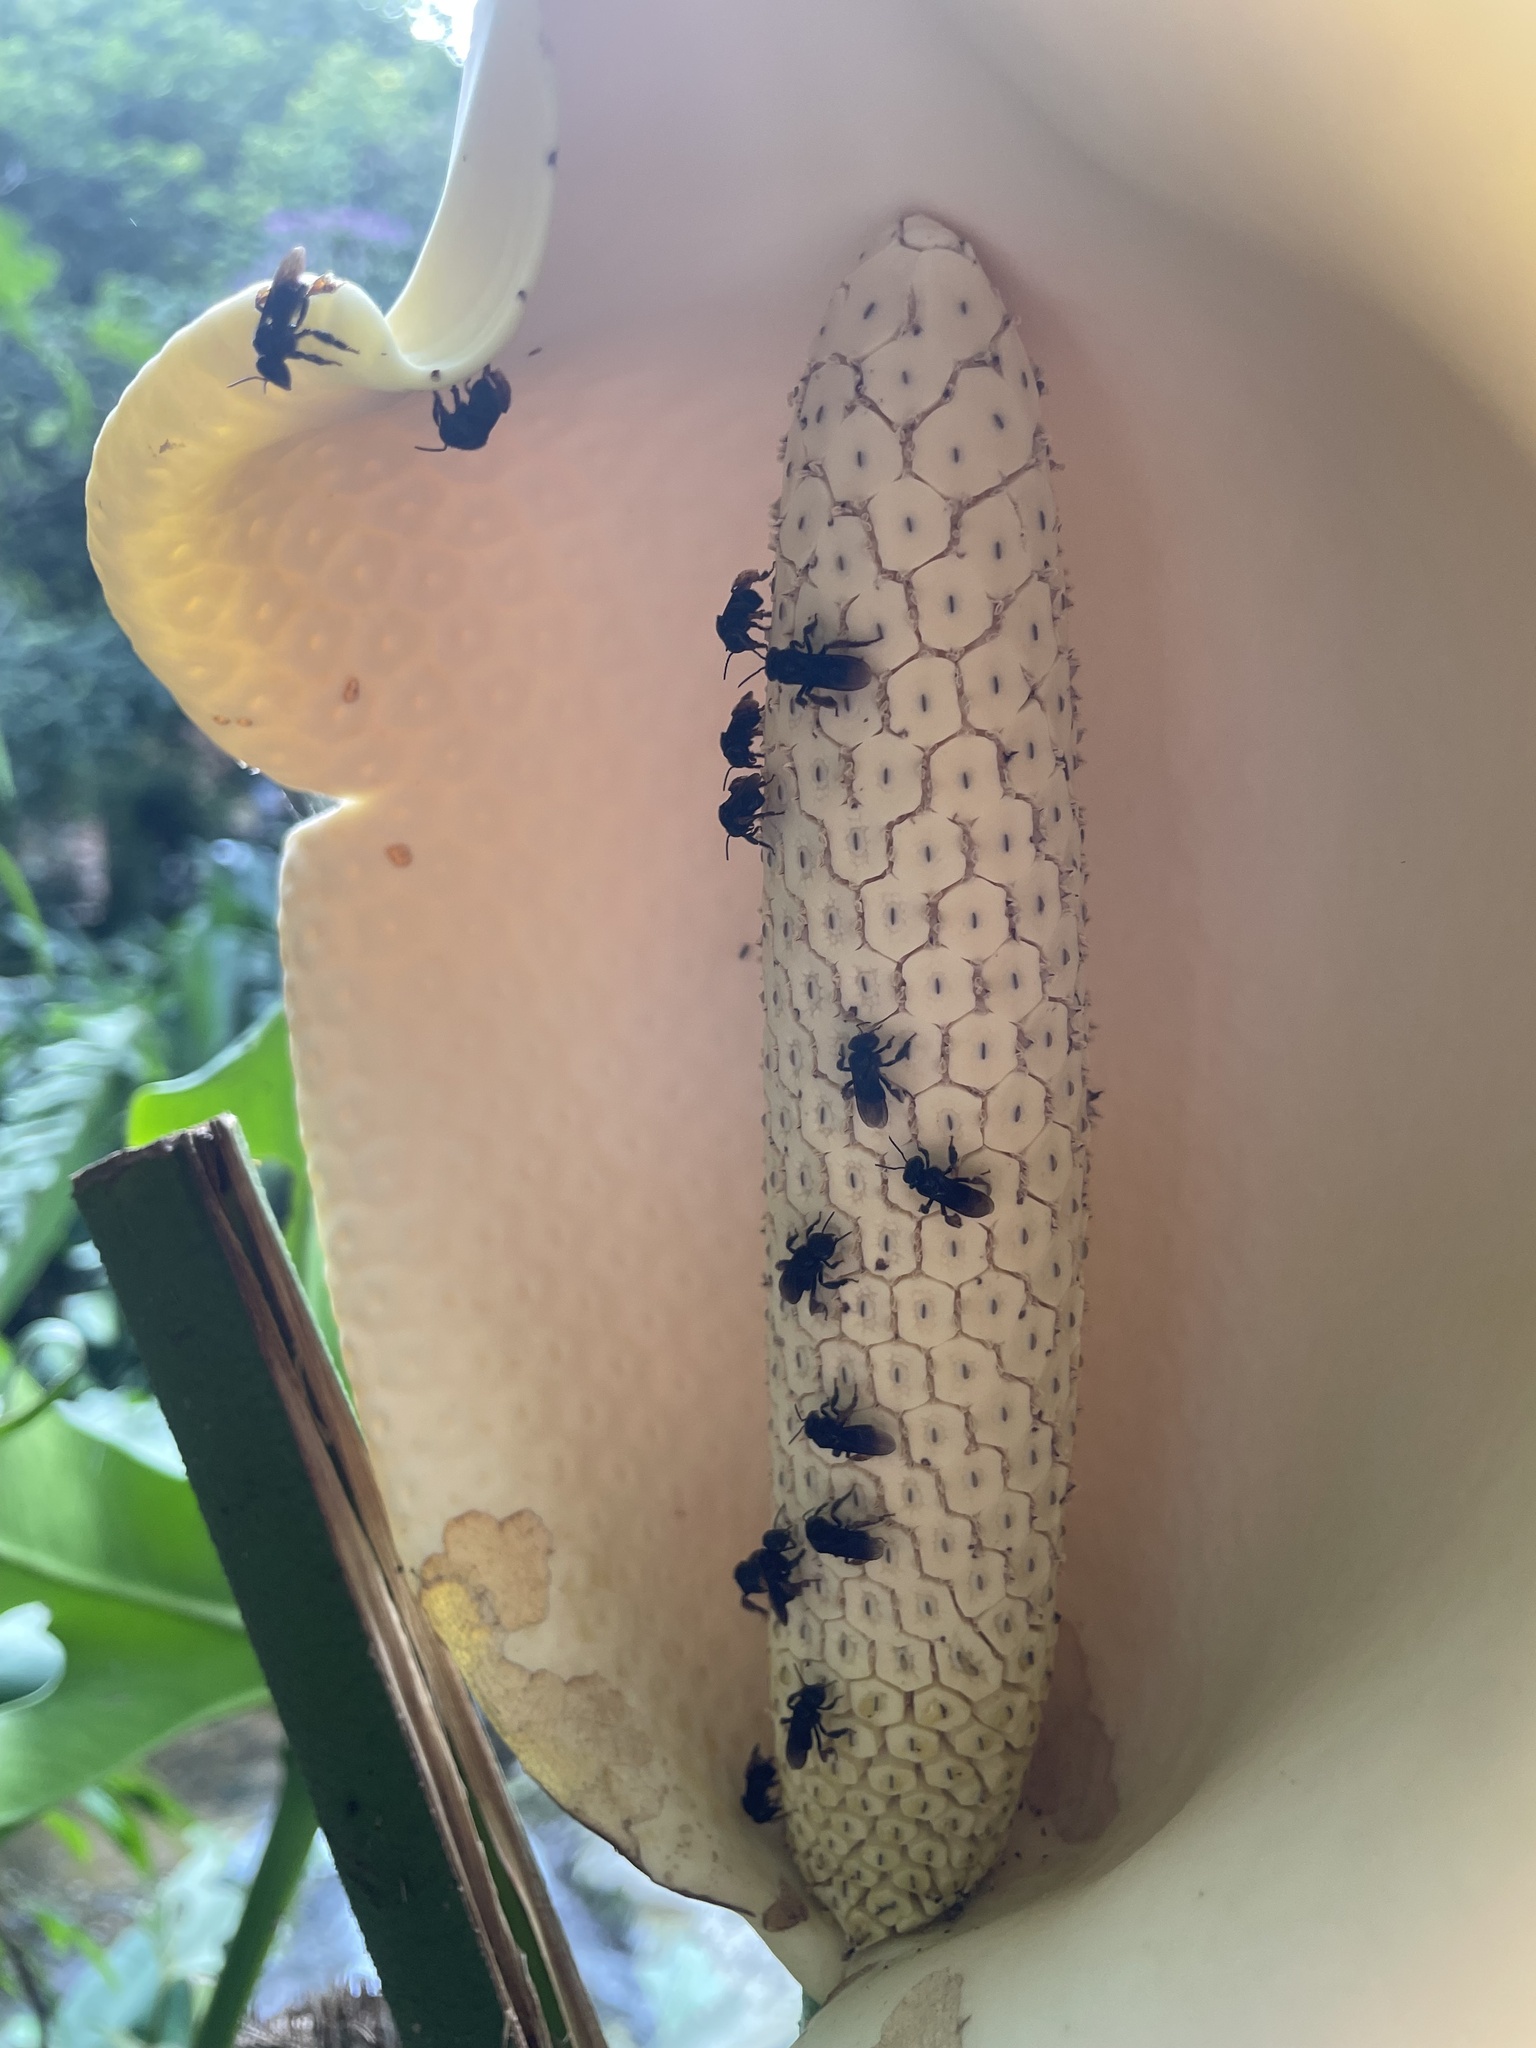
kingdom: Animalia
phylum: Arthropoda
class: Insecta
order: Hymenoptera
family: Apidae
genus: Trigona
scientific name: Trigona spinipes
